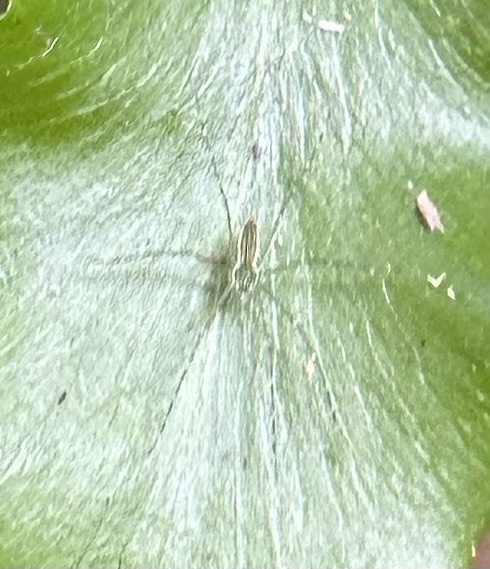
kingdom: Animalia
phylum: Arthropoda
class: Arachnida
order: Araneae
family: Pisauridae
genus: Hygropoda
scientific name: Hygropoda lineata
